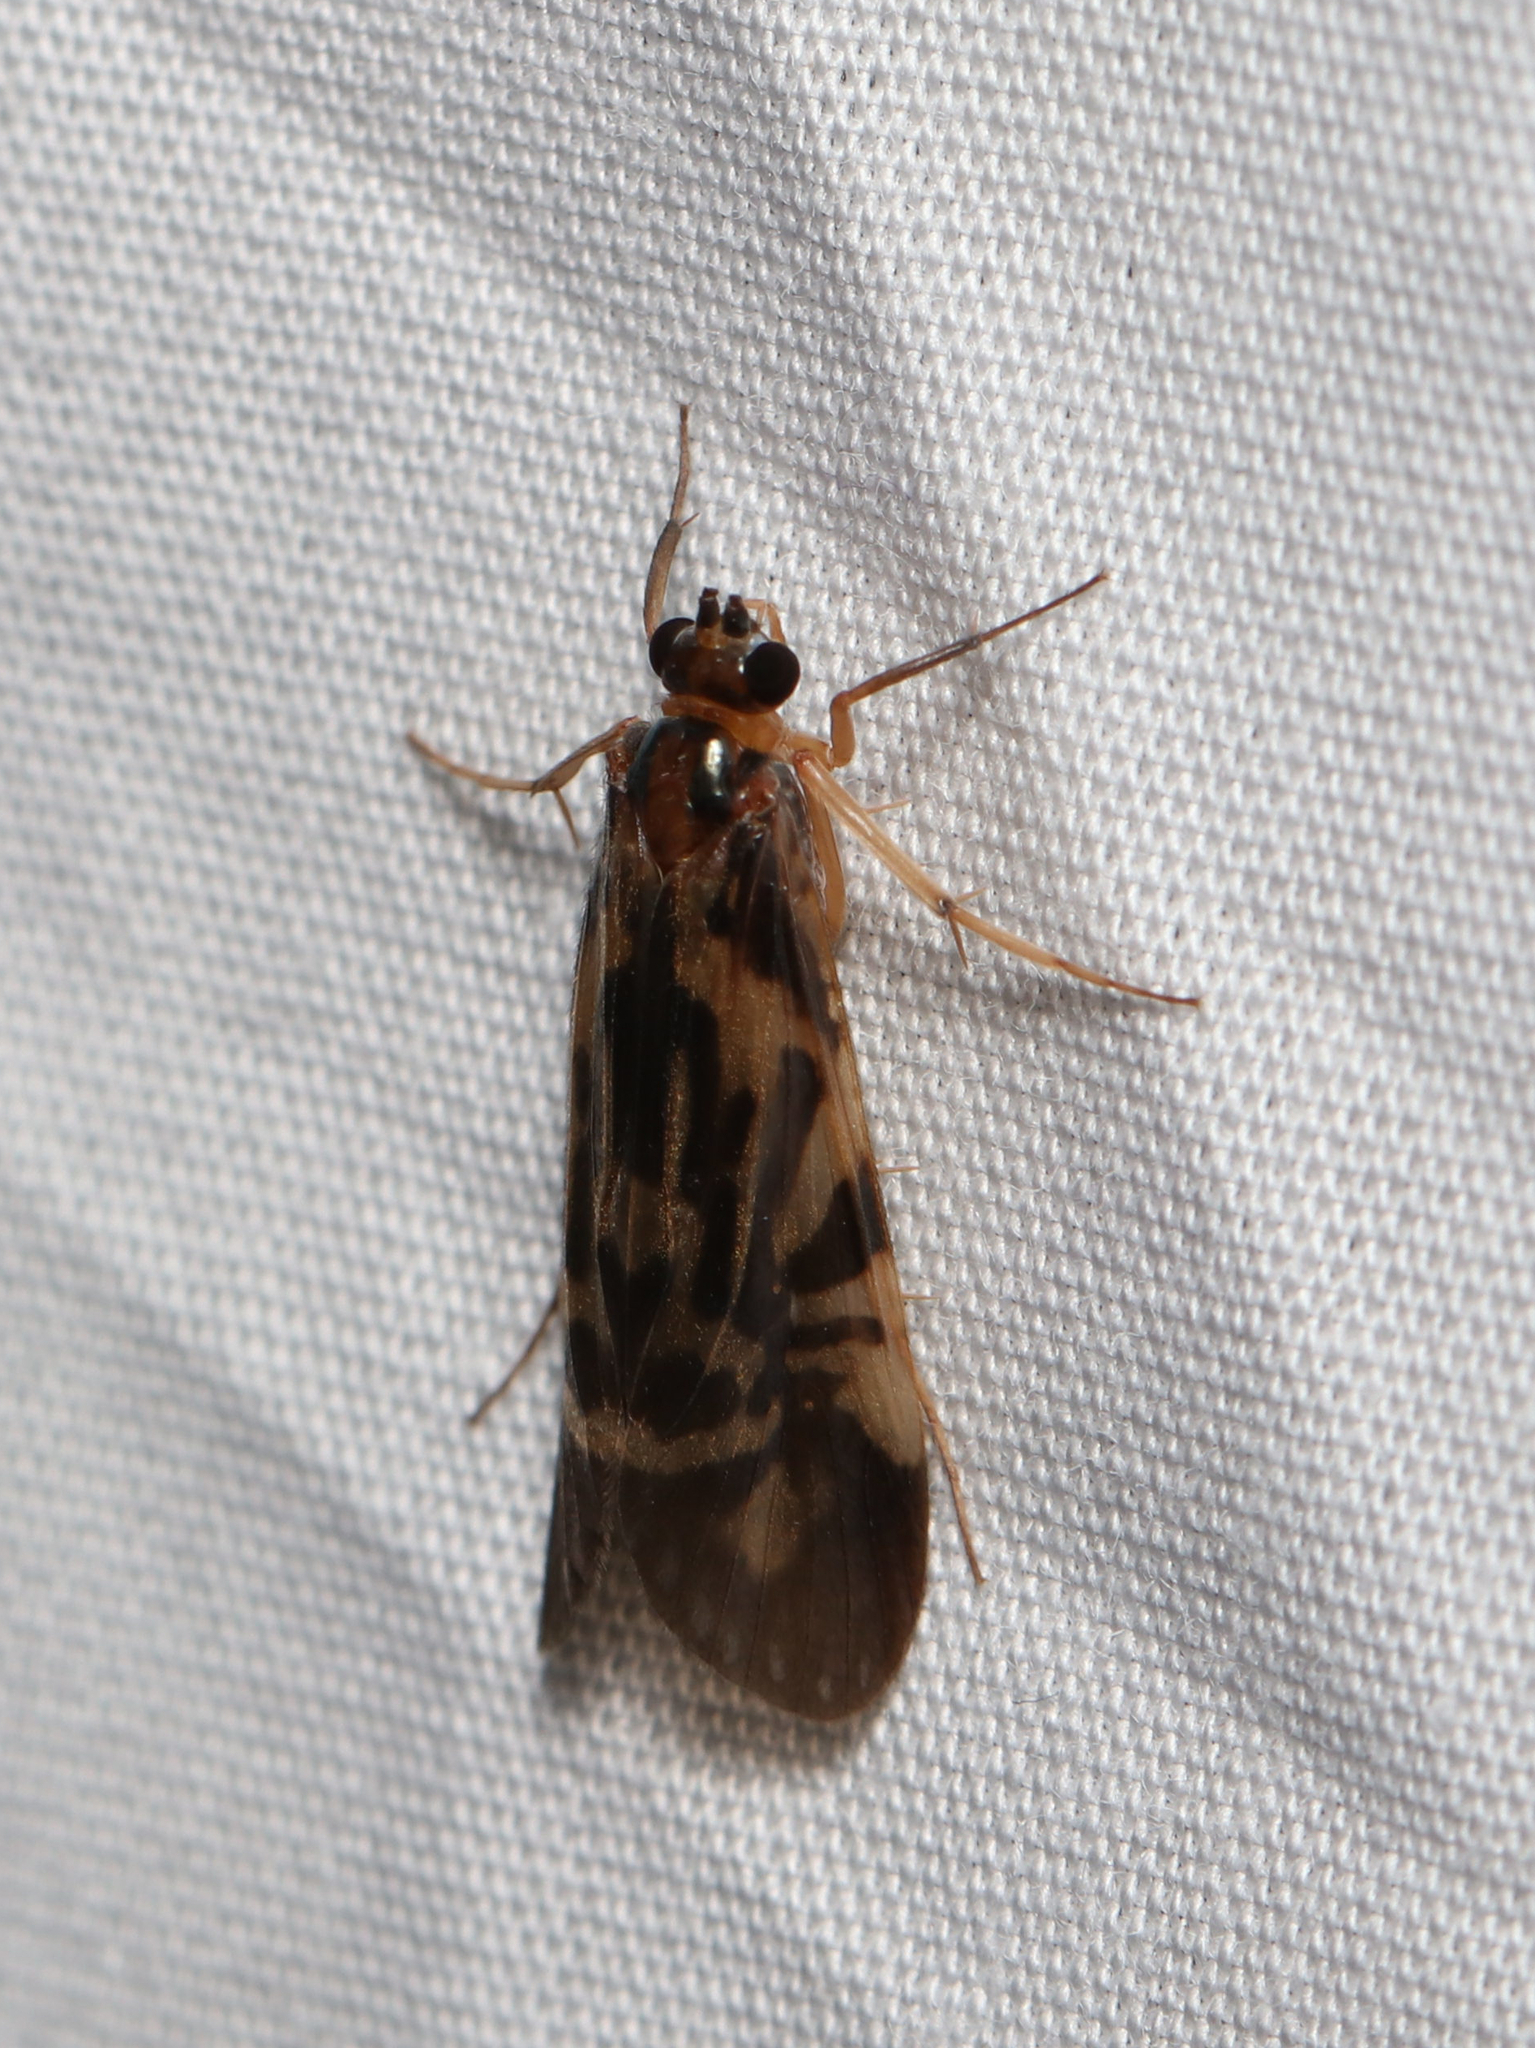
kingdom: Animalia
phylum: Arthropoda
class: Insecta
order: Trichoptera
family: Hydropsychidae
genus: Macrostemum
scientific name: Macrostemum zebratum
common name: Zebra caddisfly
